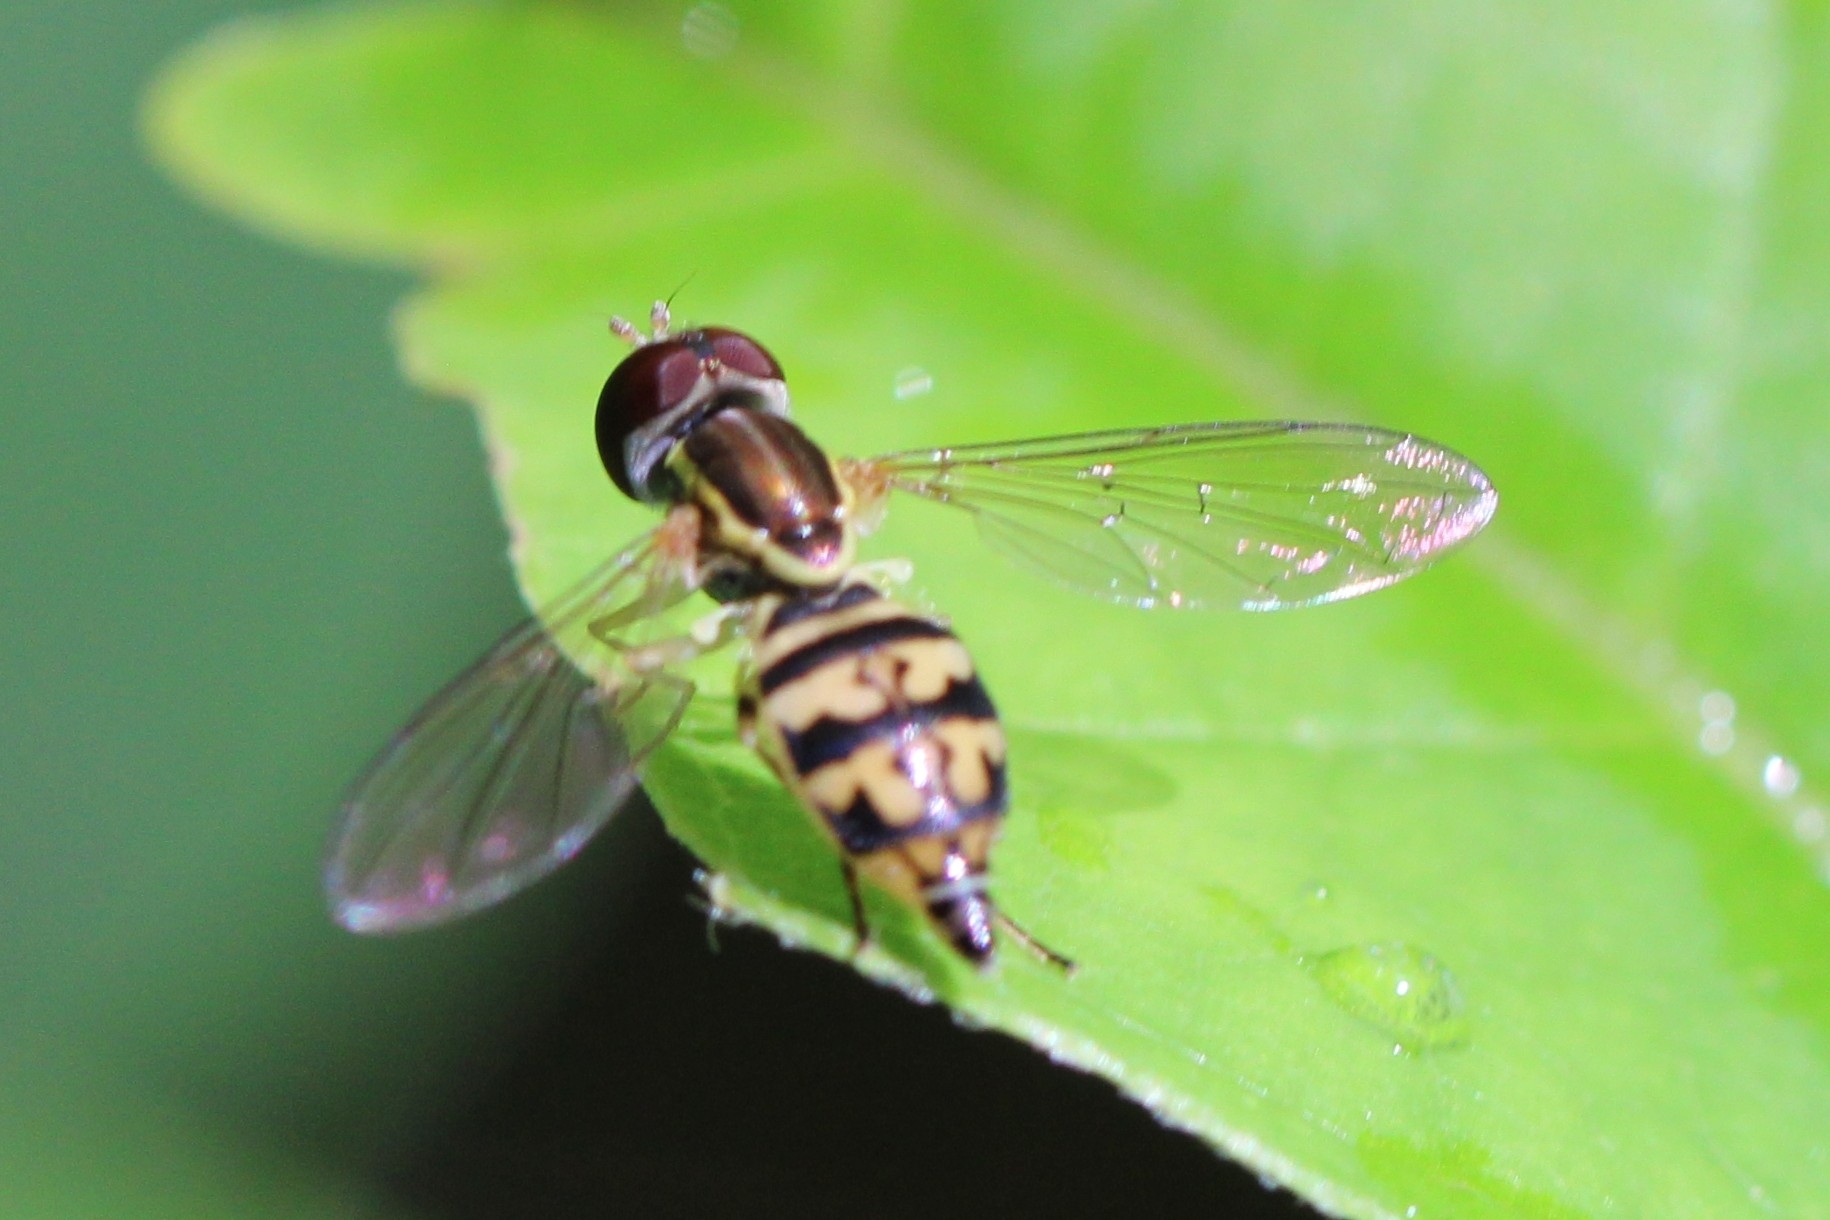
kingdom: Animalia
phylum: Arthropoda
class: Insecta
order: Diptera
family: Syrphidae
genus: Toxomerus
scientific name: Toxomerus geminatus
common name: Eastern calligrapher
